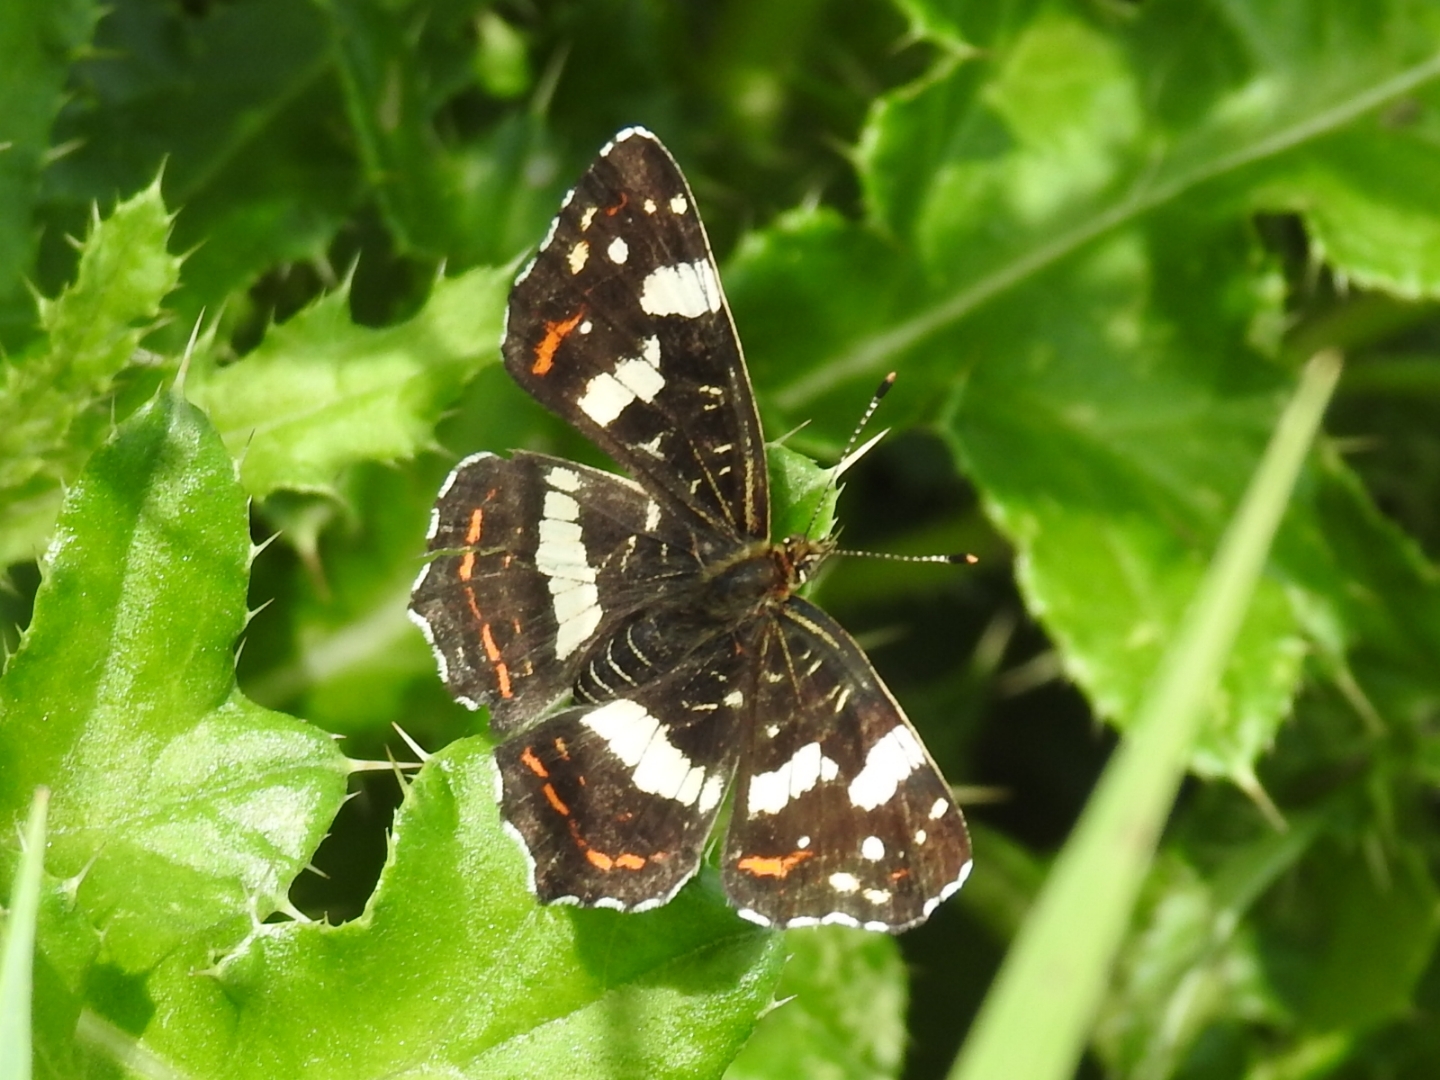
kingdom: Animalia
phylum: Arthropoda
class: Insecta
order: Lepidoptera
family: Nymphalidae
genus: Araschnia
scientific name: Araschnia levana
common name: Map butterfly
